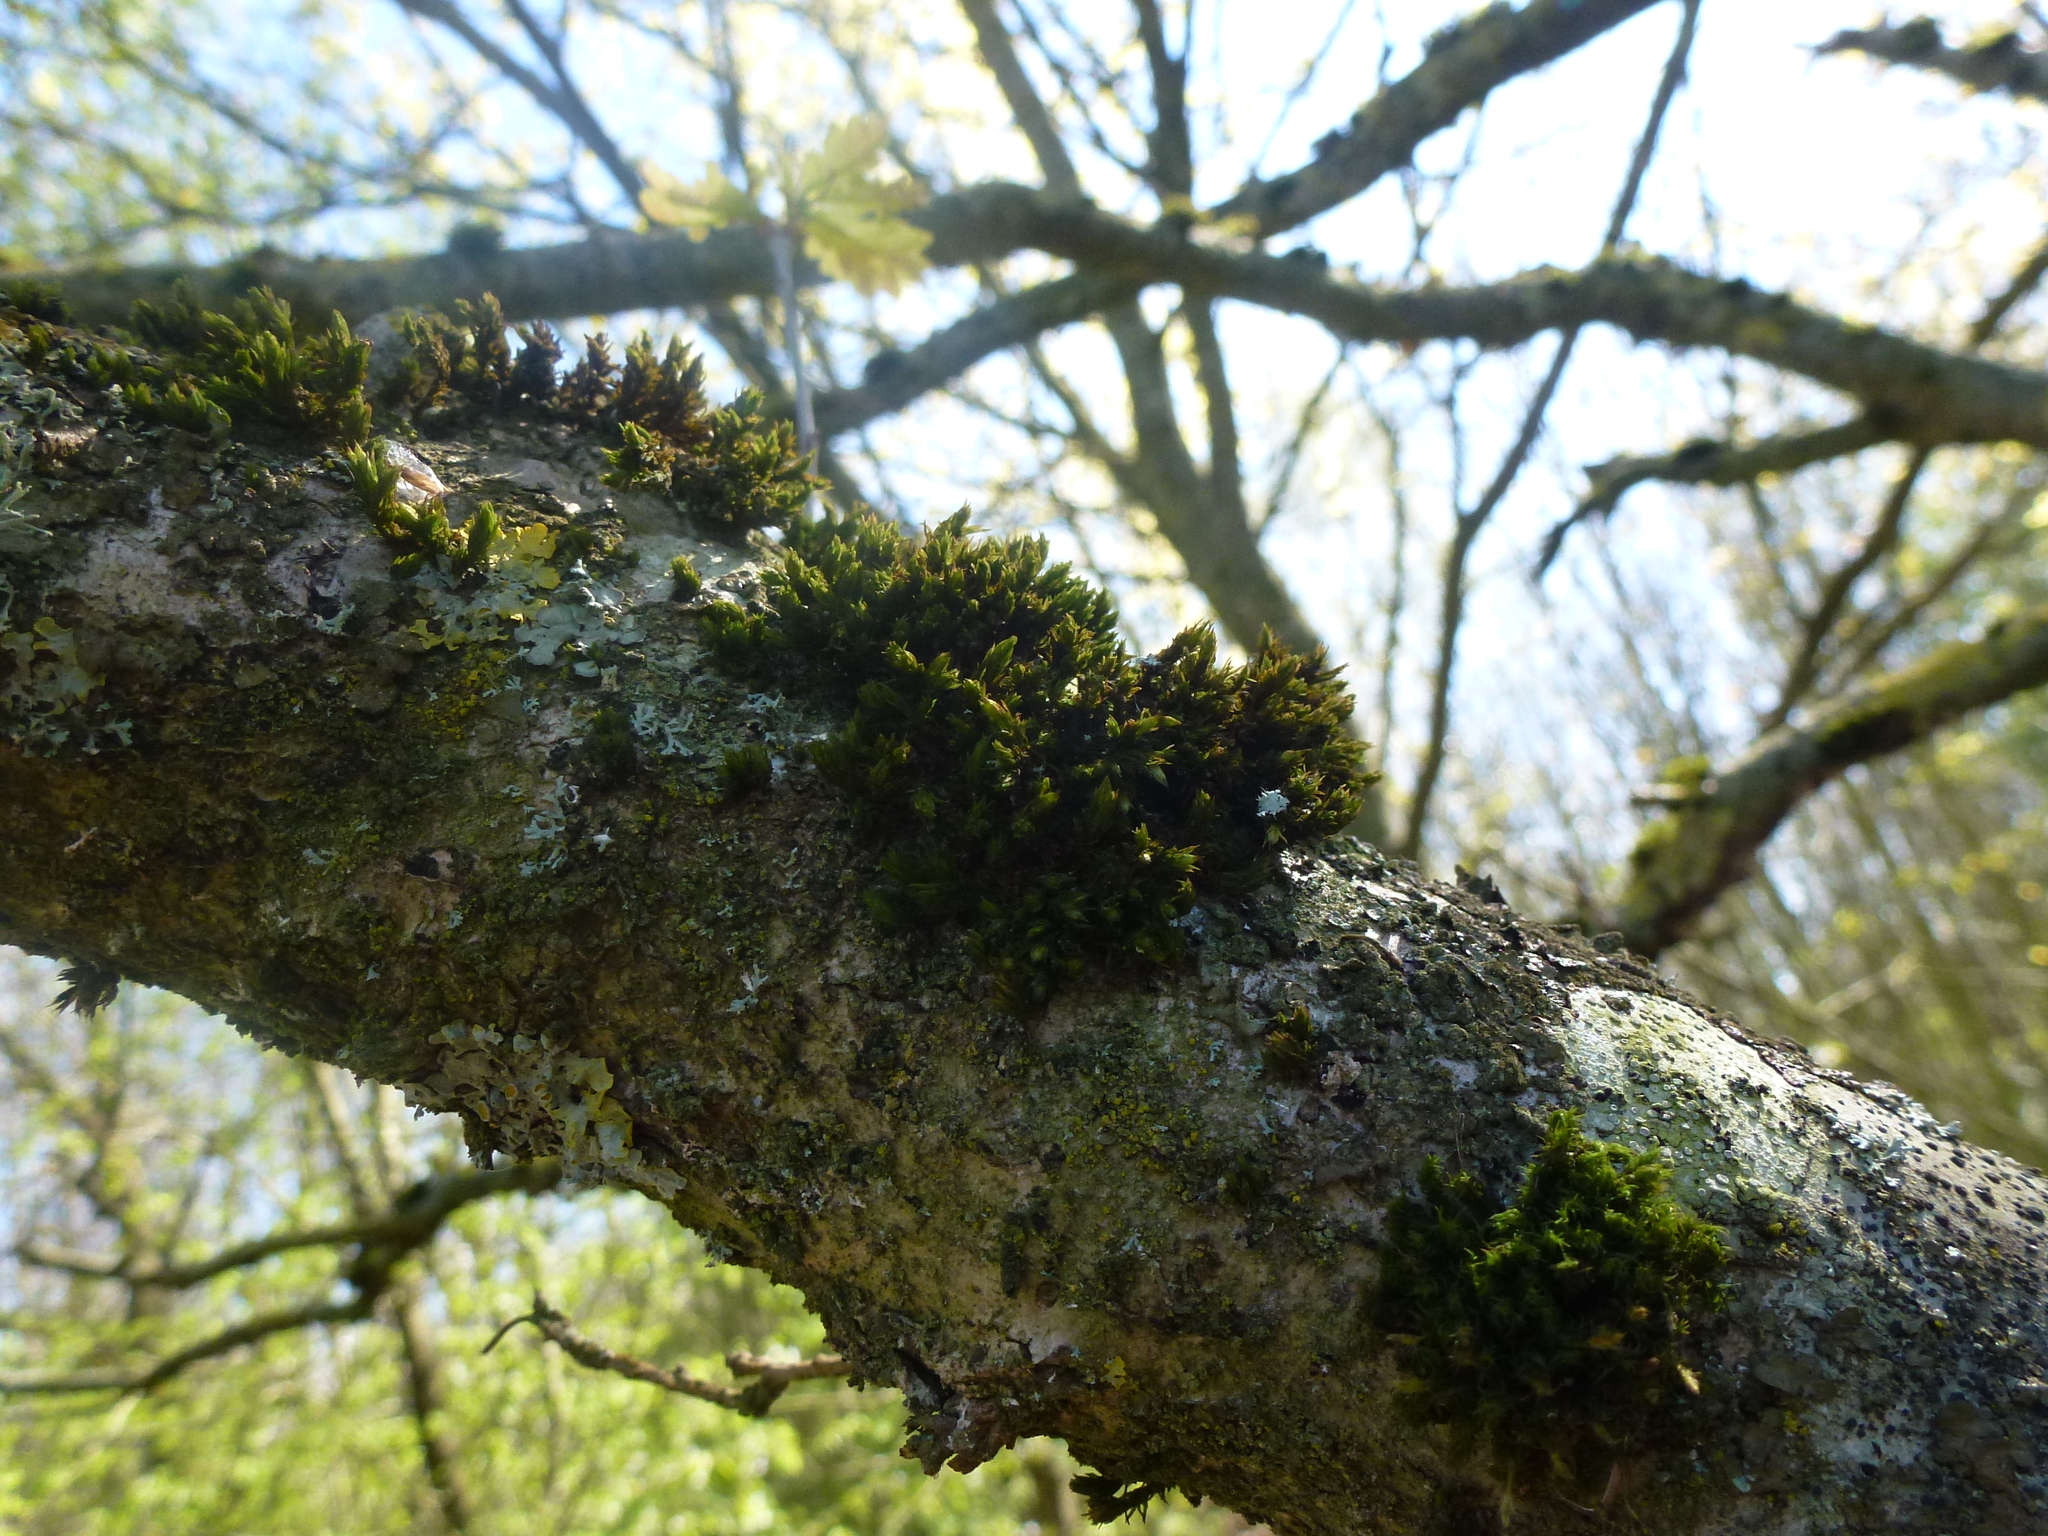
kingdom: Plantae
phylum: Bryophyta
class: Bryopsida
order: Orthotrichales
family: Orthotrichaceae
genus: Lewinskya
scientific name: Lewinskya affinis
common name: Wood bristle-moss
